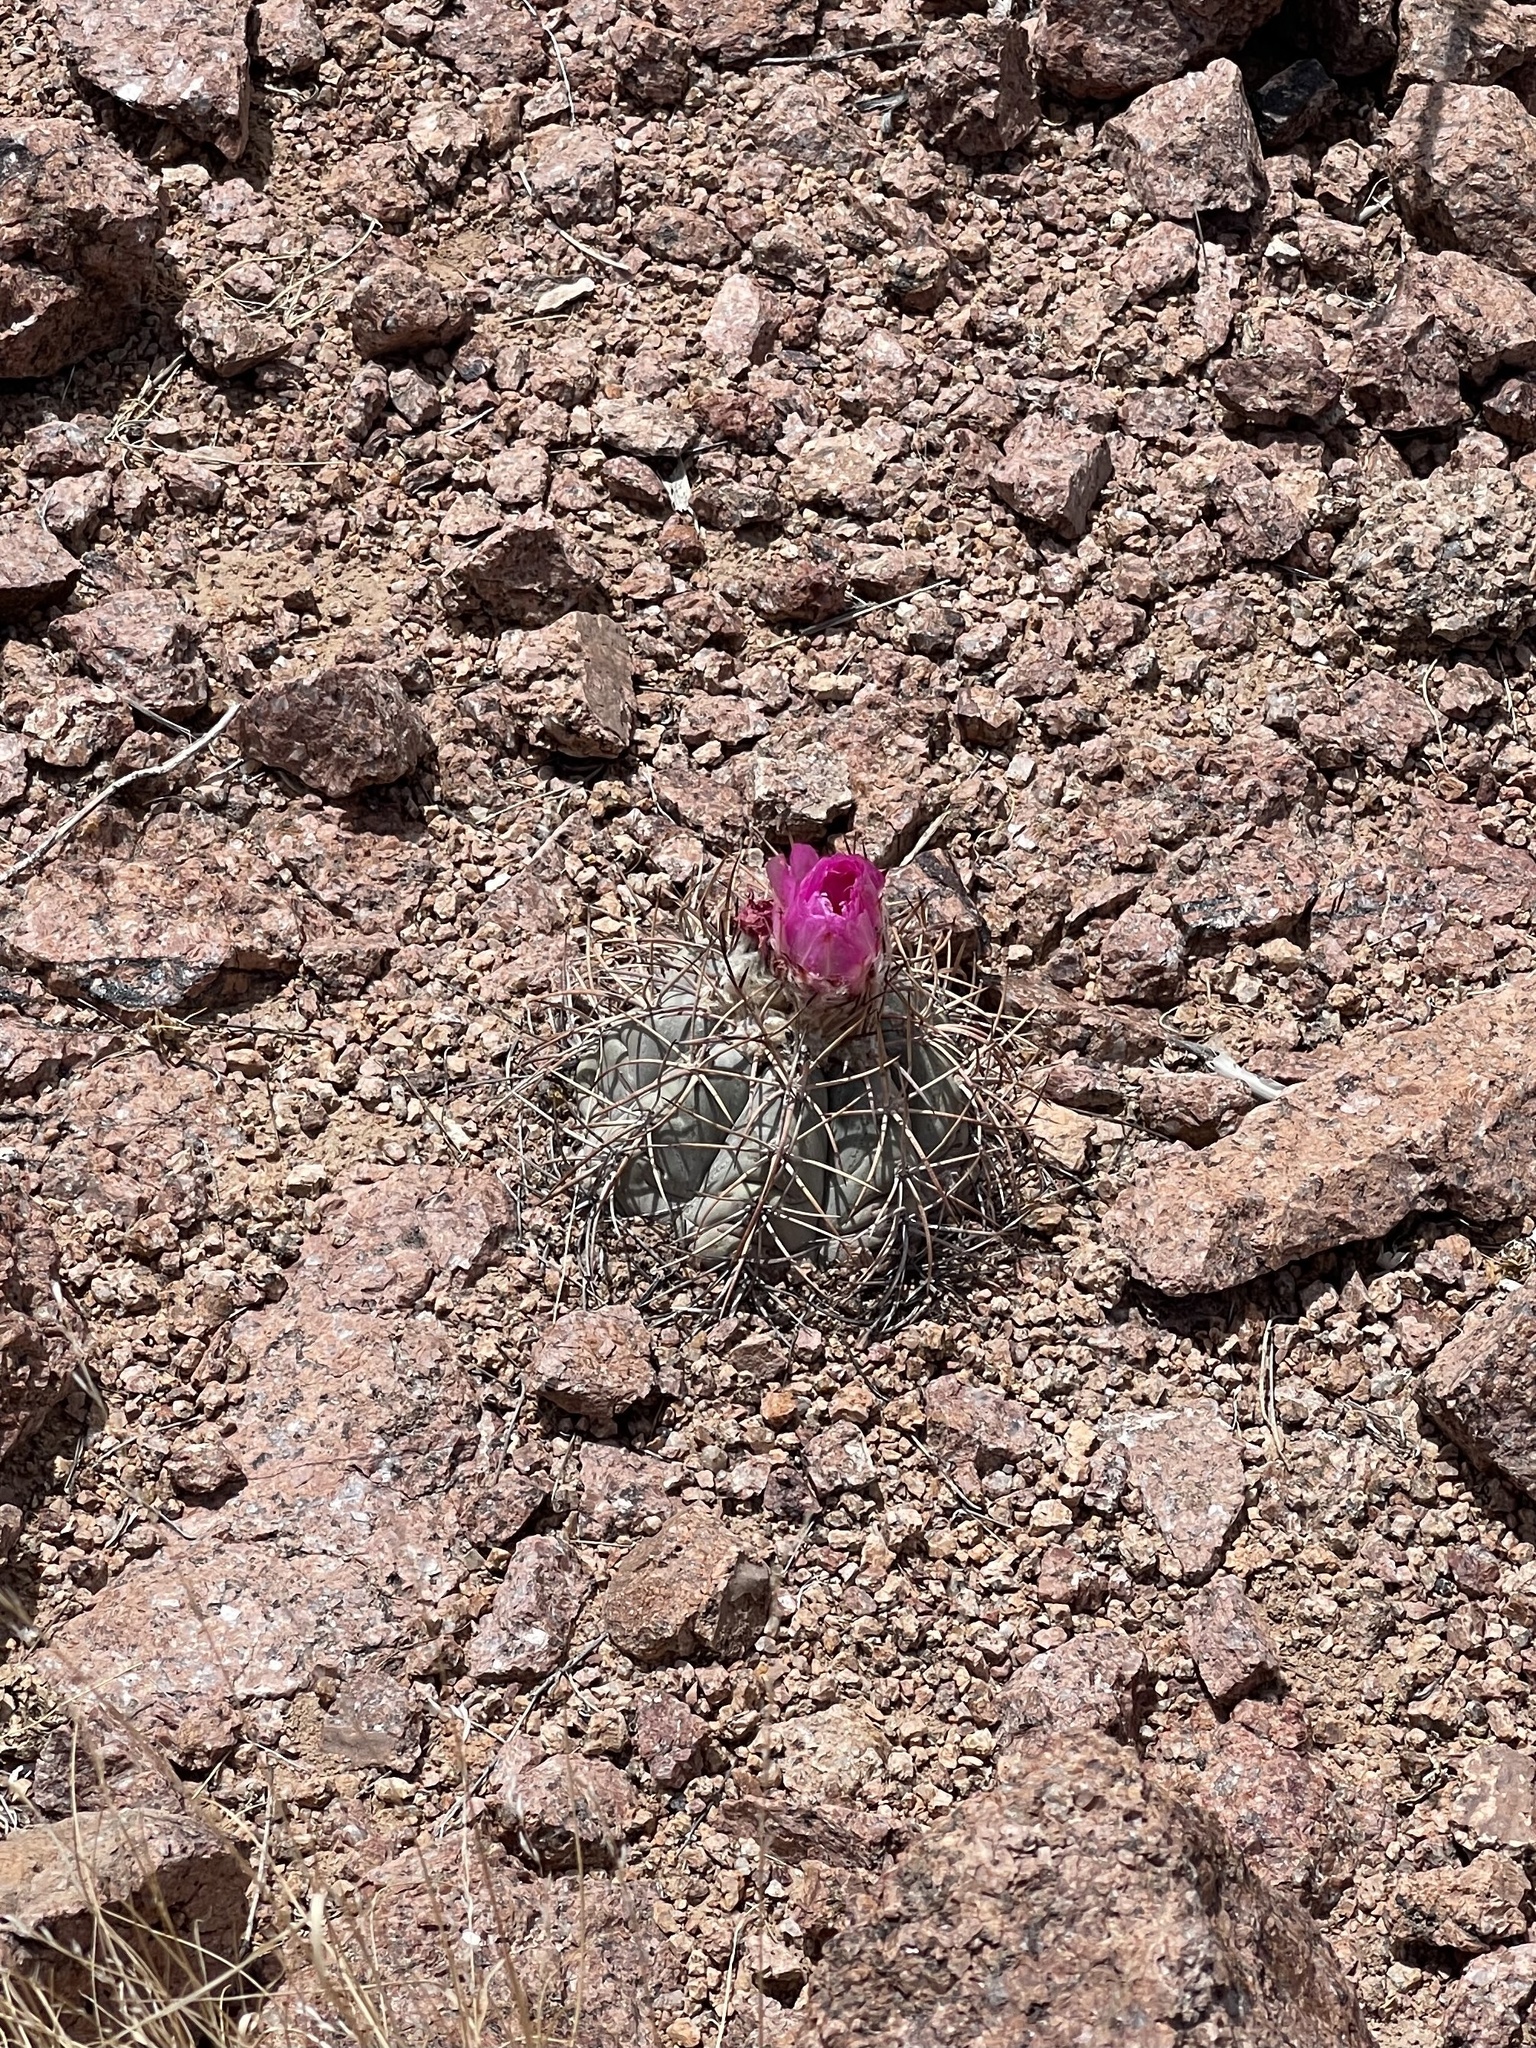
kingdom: Plantae
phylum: Tracheophyta
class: Magnoliopsida
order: Caryophyllales
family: Cactaceae
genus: Echinocactus
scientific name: Echinocactus horizonthalonius
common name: Devilshead
